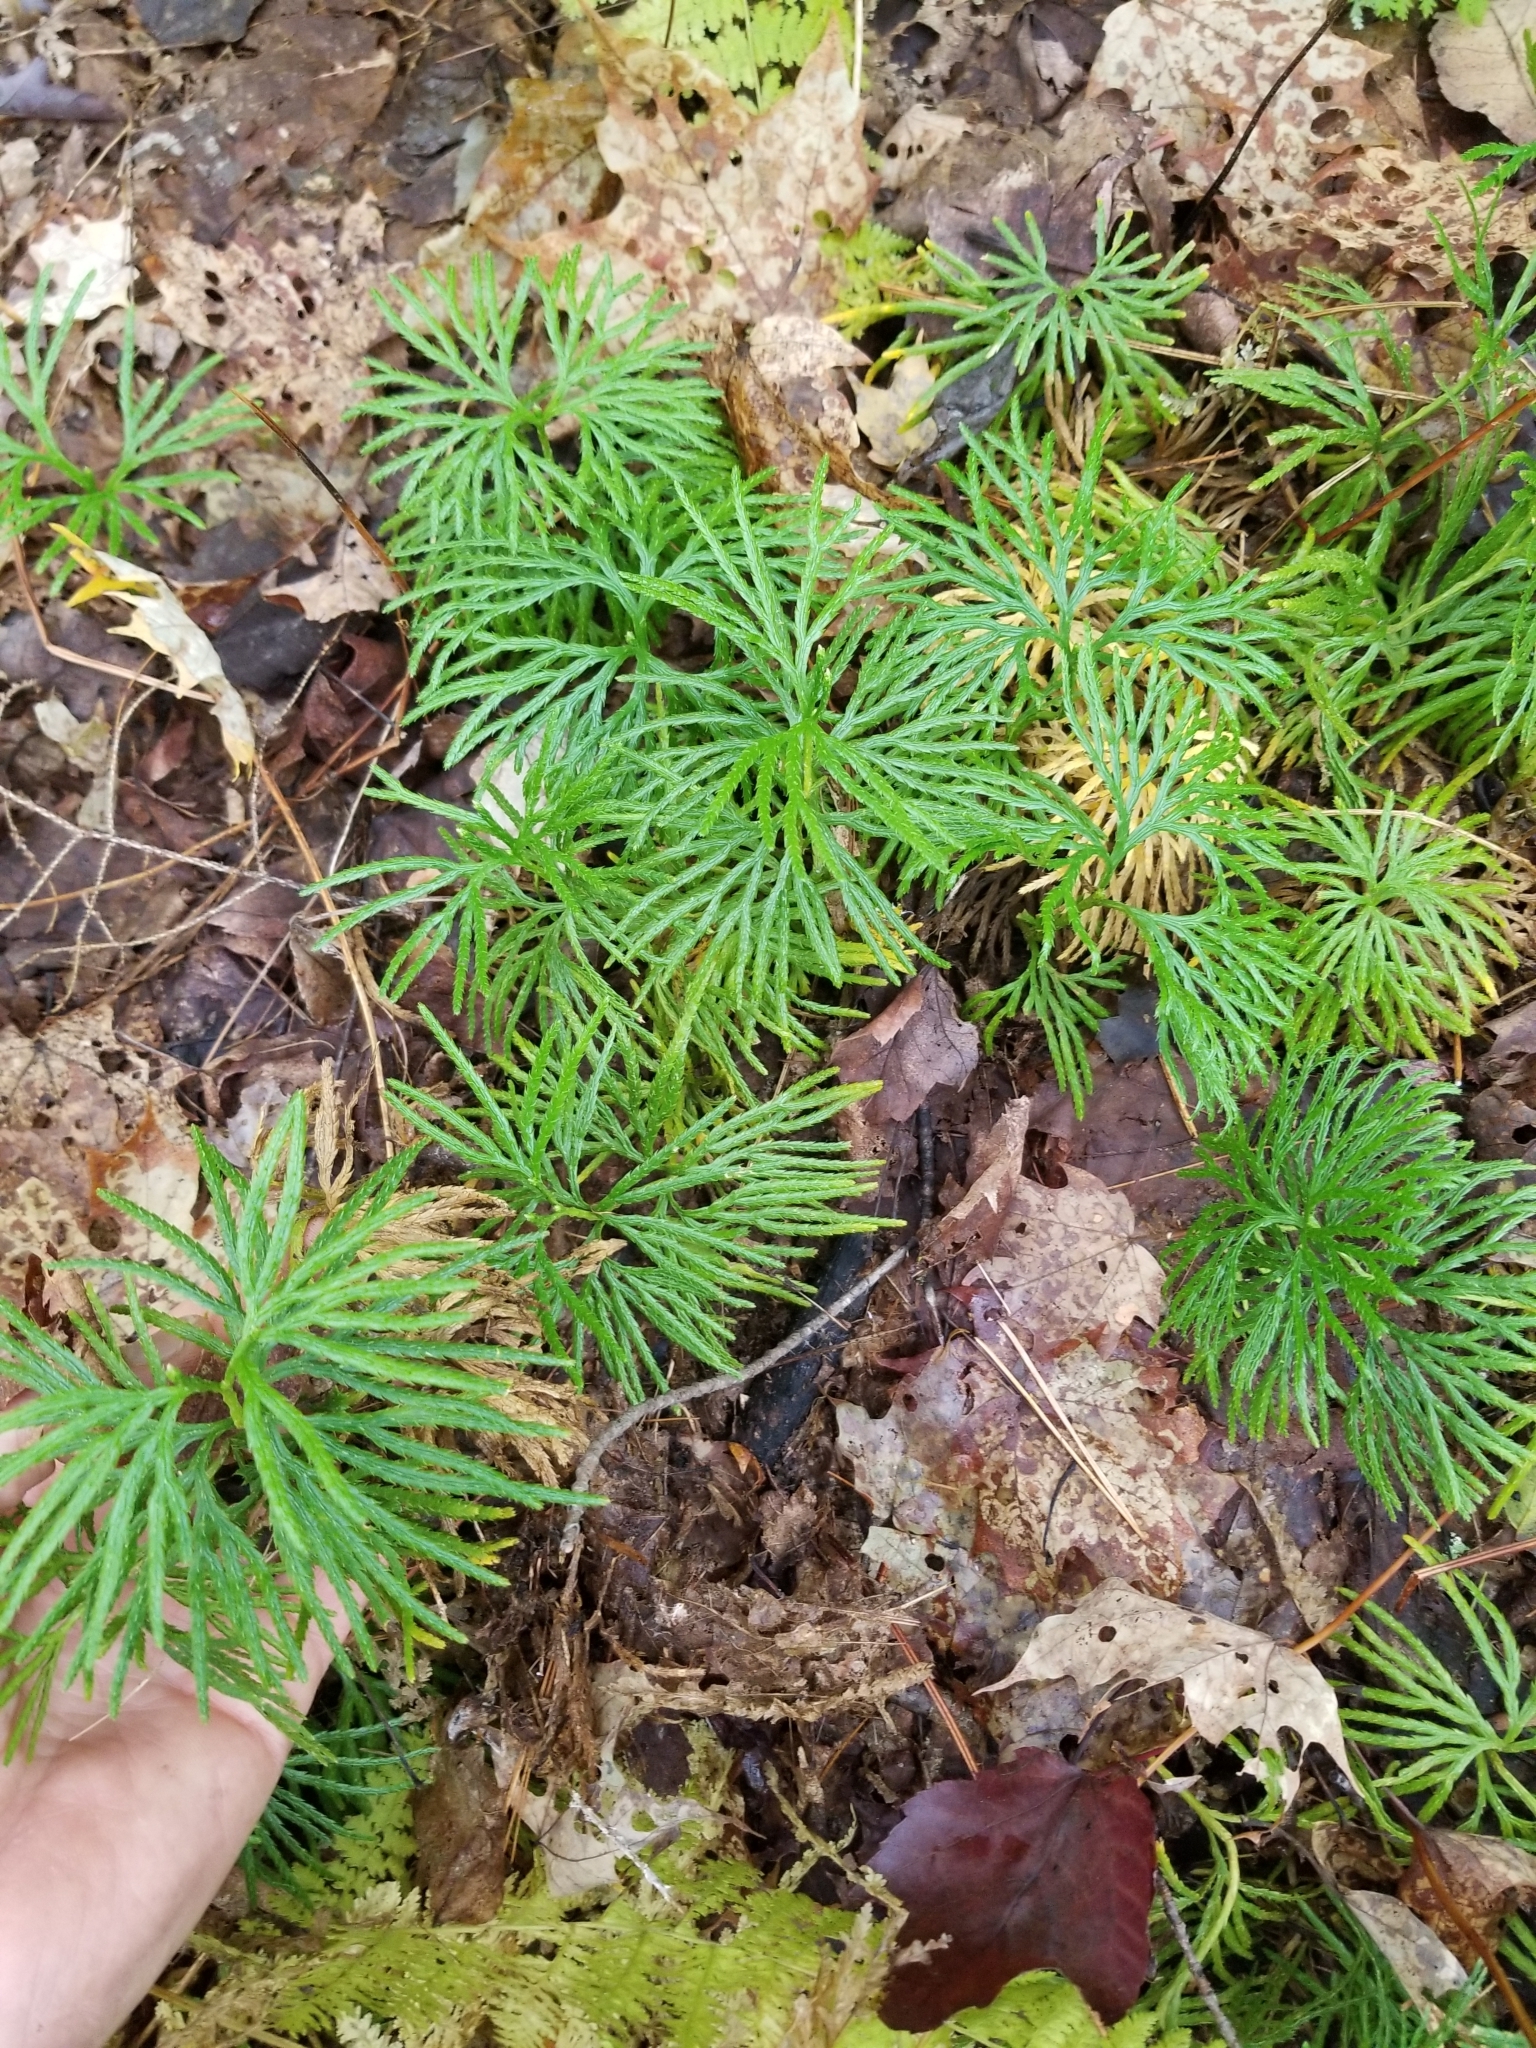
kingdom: Plantae
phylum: Tracheophyta
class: Lycopodiopsida
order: Lycopodiales
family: Lycopodiaceae
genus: Diphasiastrum
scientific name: Diphasiastrum digitatum
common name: Southern running-pine
